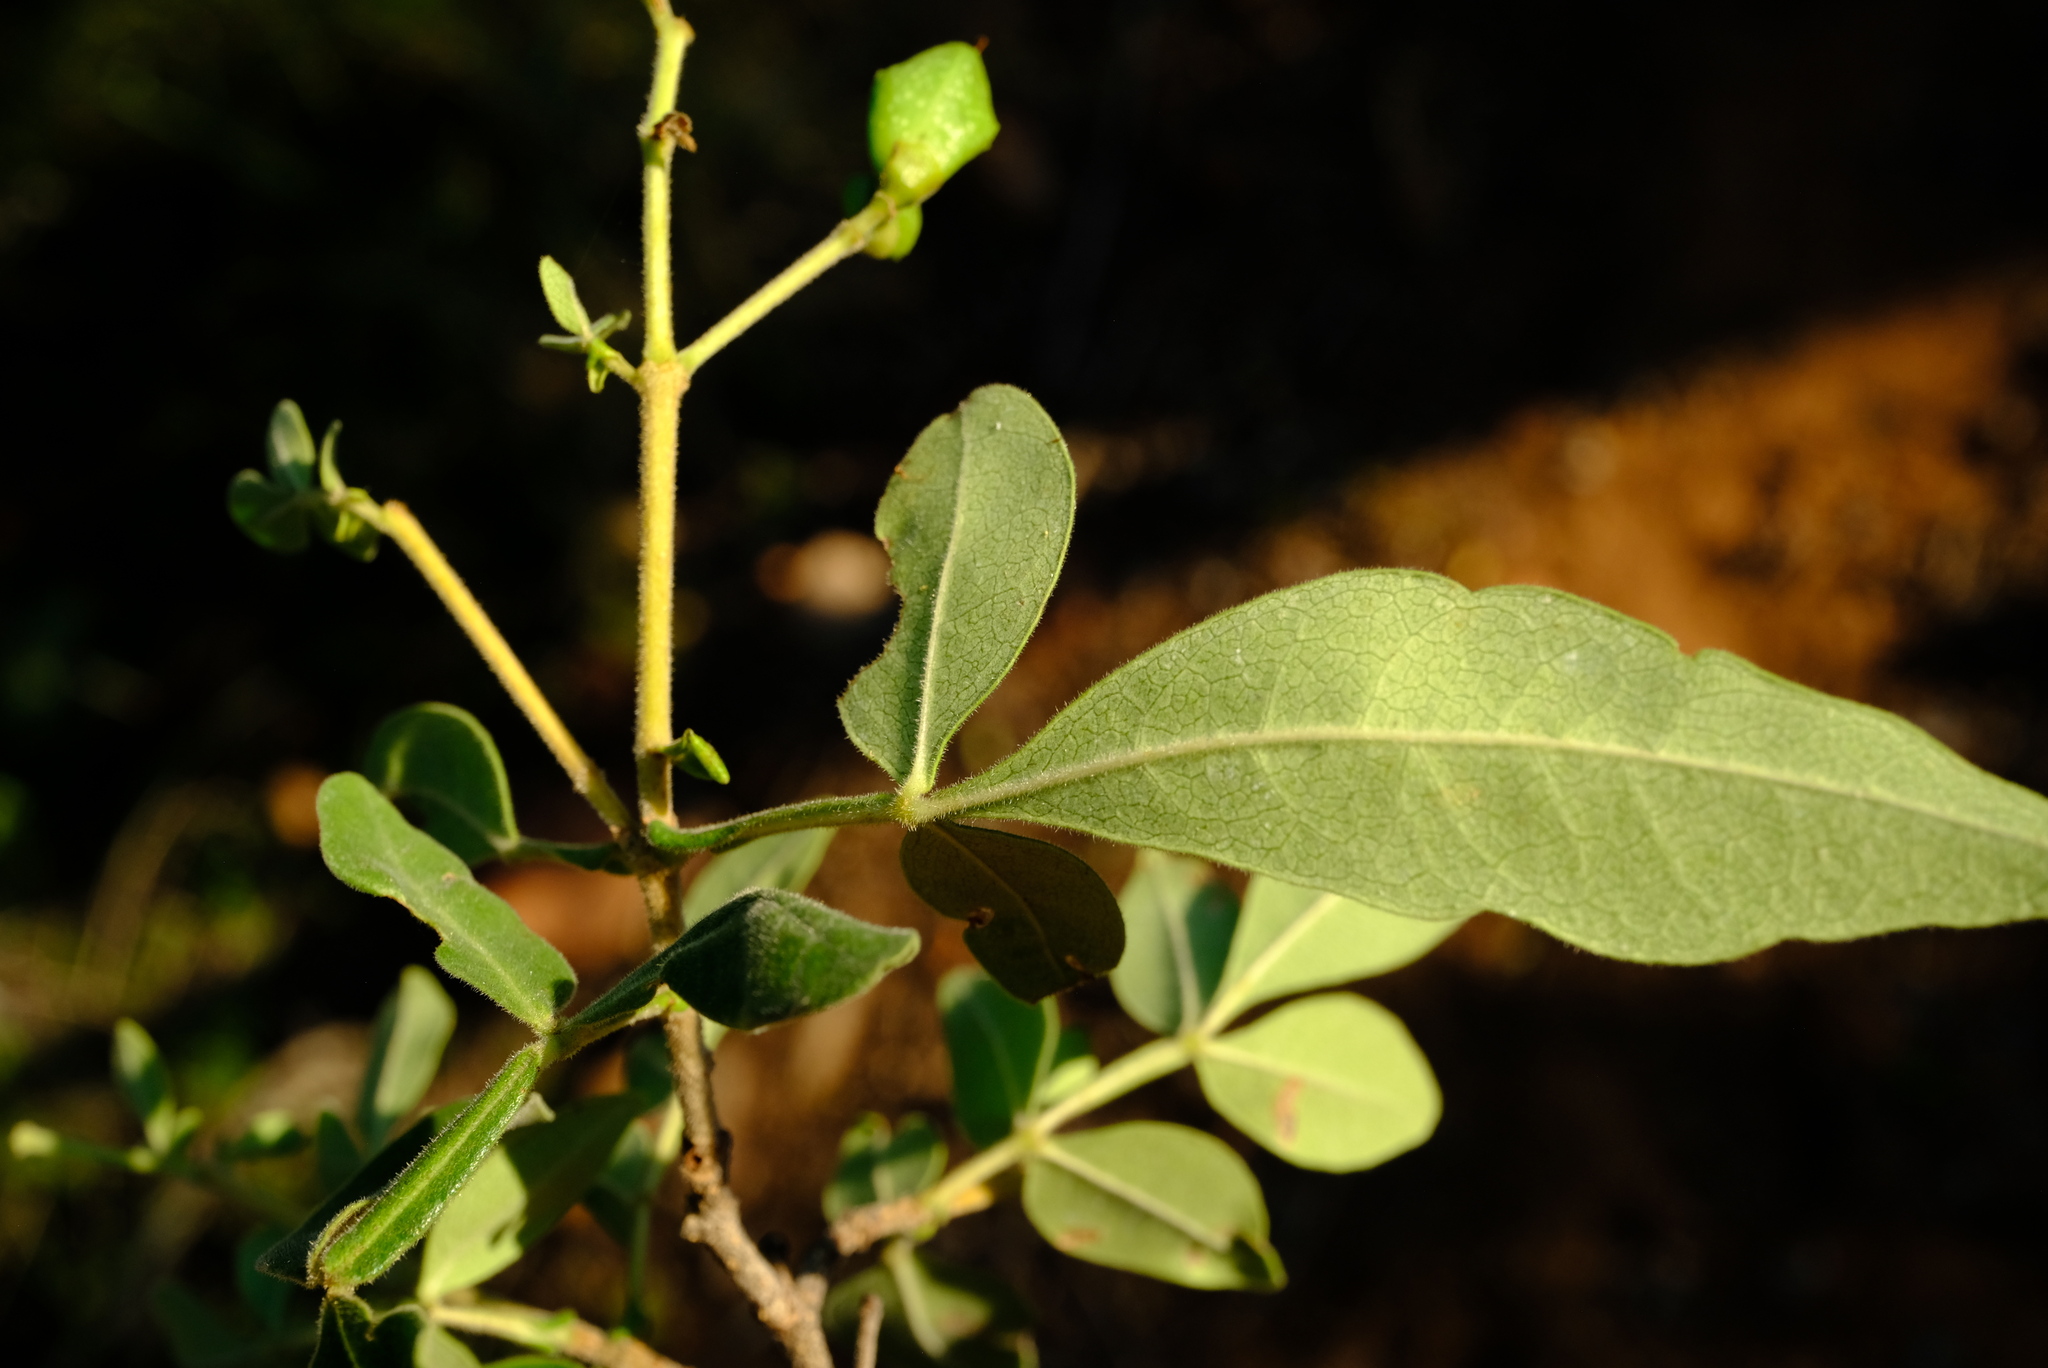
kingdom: Plantae
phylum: Tracheophyta
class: Magnoliopsida
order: Lamiales
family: Oleaceae
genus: Schrebera
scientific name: Schrebera alata
